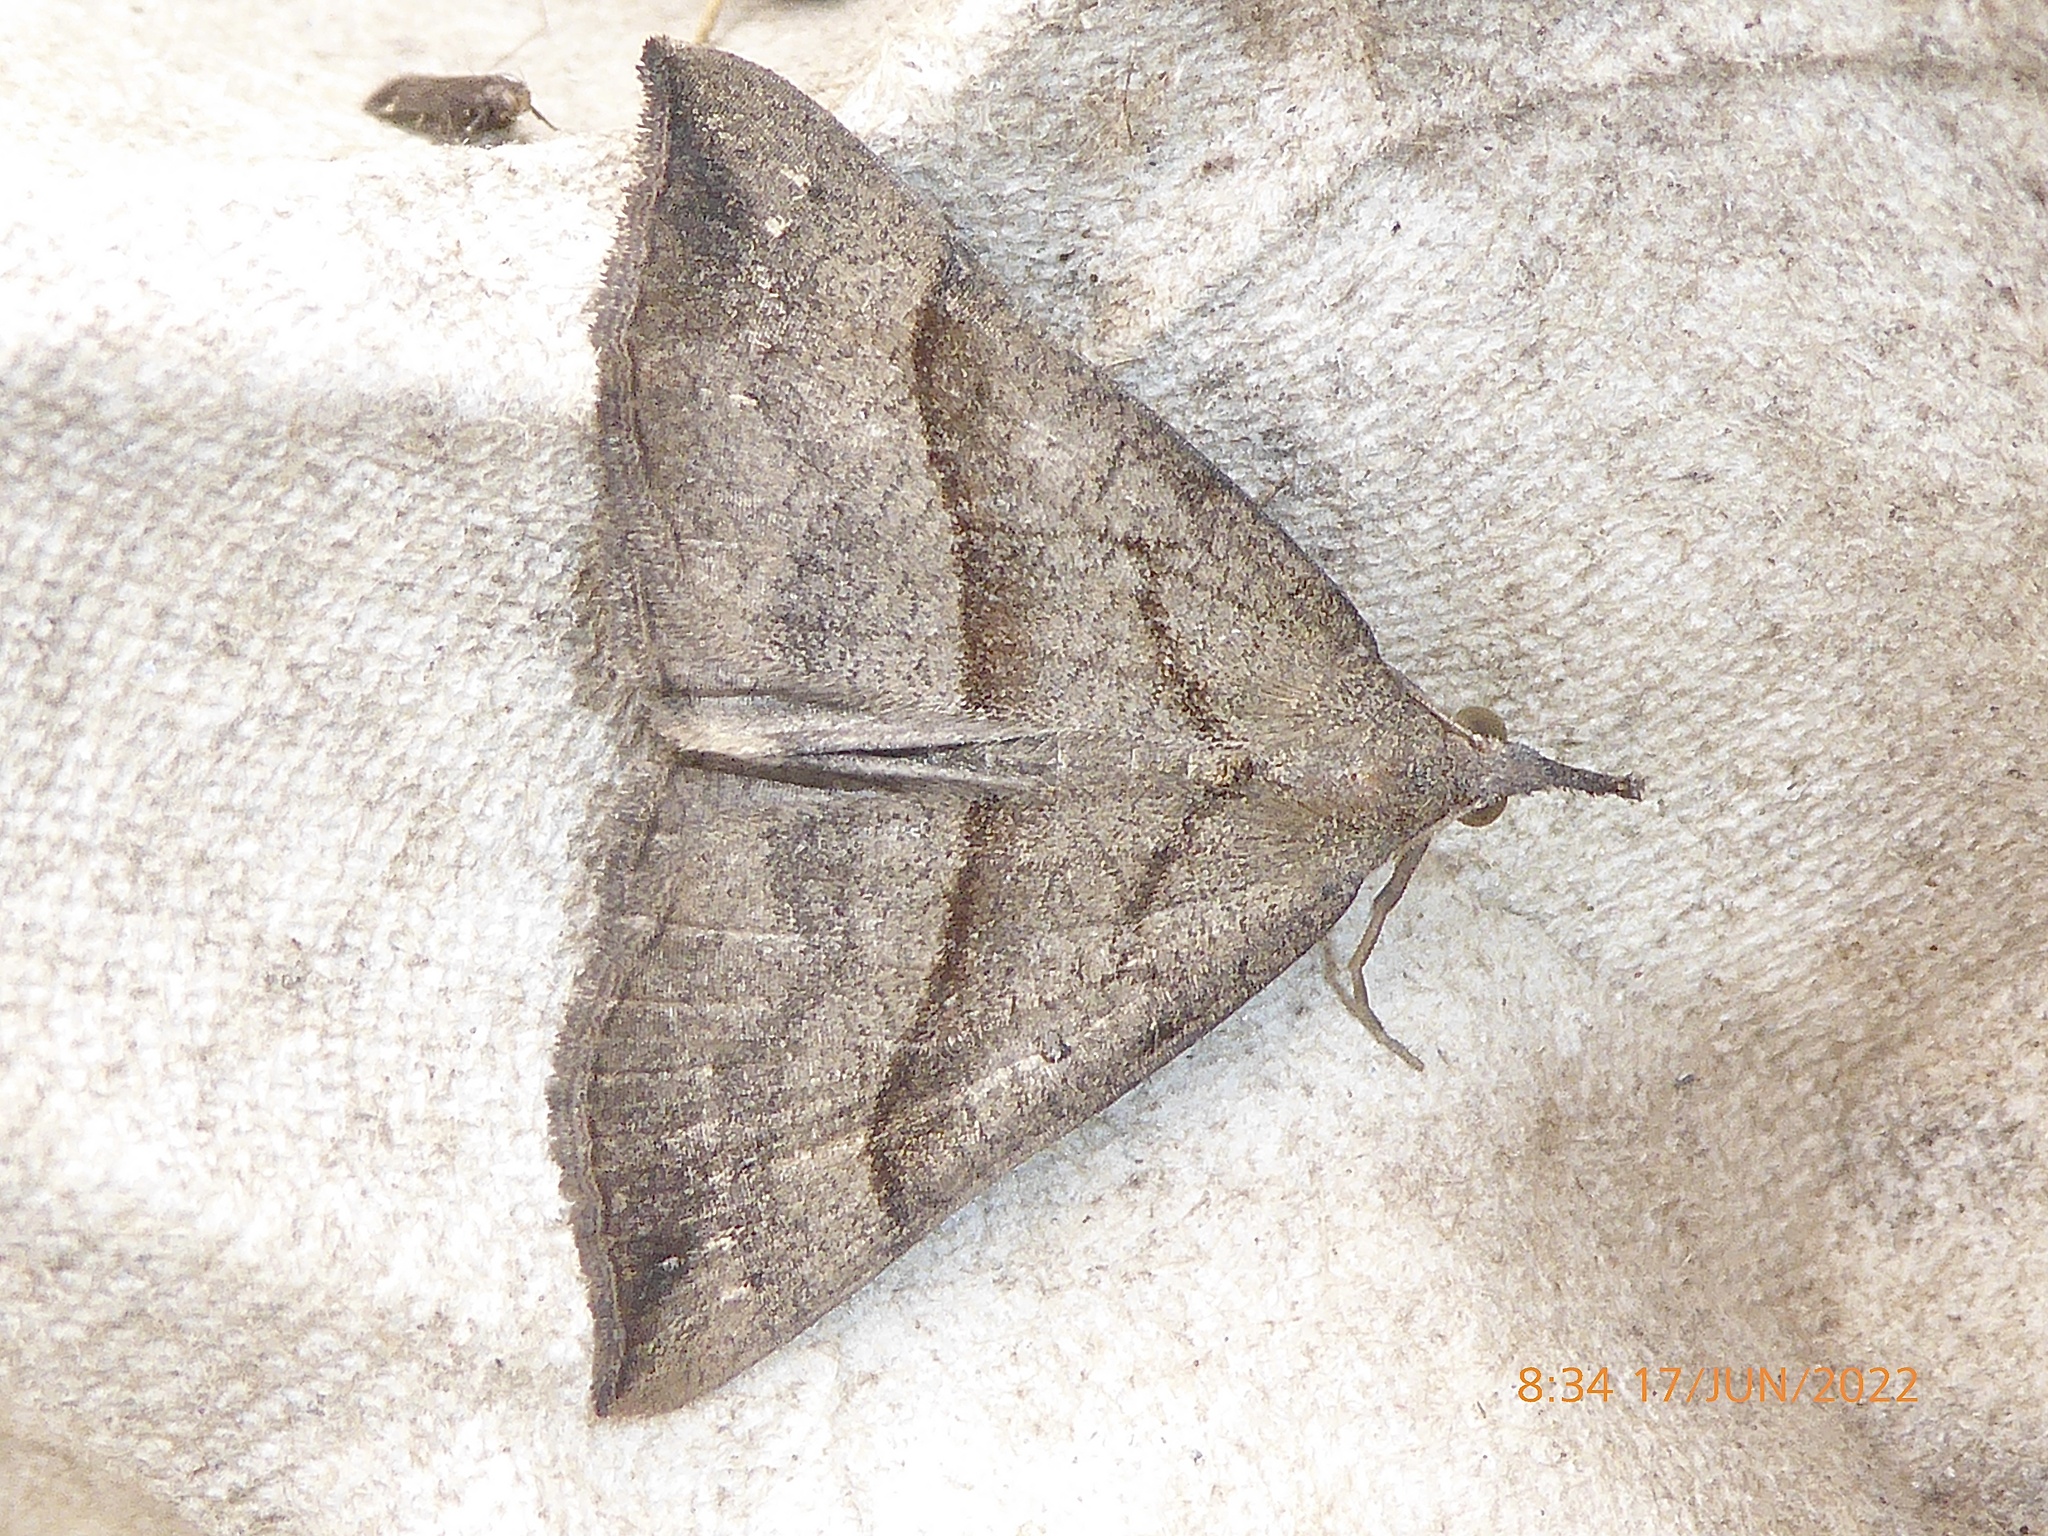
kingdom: Animalia
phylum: Arthropoda
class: Insecta
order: Lepidoptera
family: Erebidae
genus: Hypena
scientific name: Hypena proboscidalis
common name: Snout
